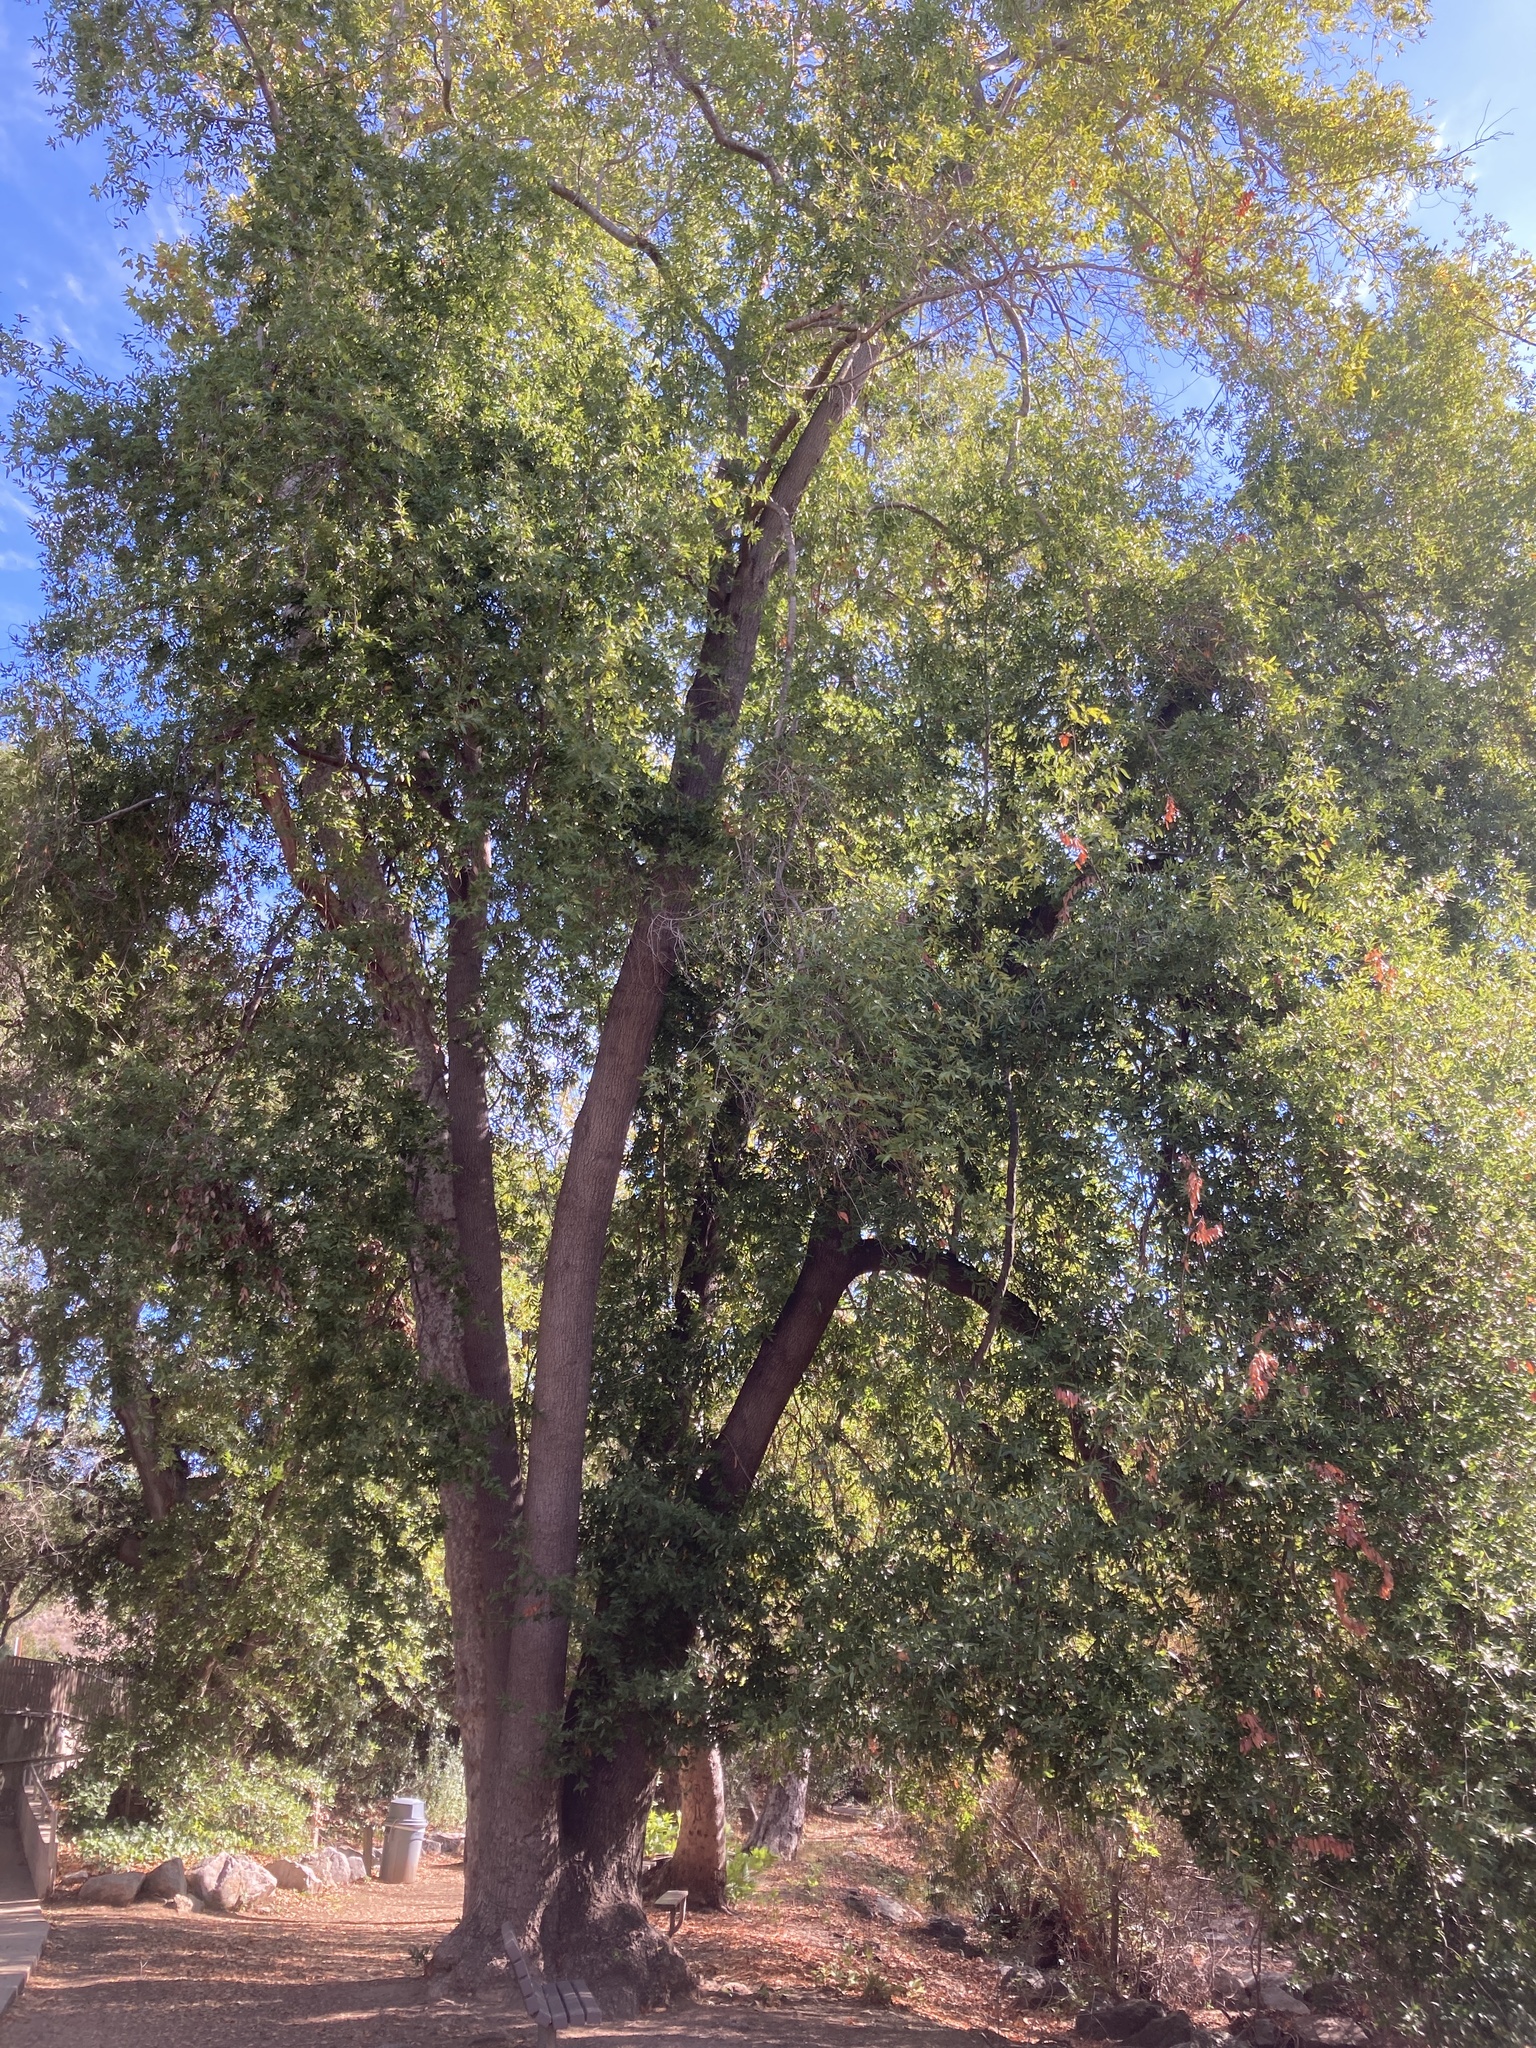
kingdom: Plantae
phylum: Tracheophyta
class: Magnoliopsida
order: Laurales
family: Lauraceae
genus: Umbellularia
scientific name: Umbellularia californica
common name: California bay
